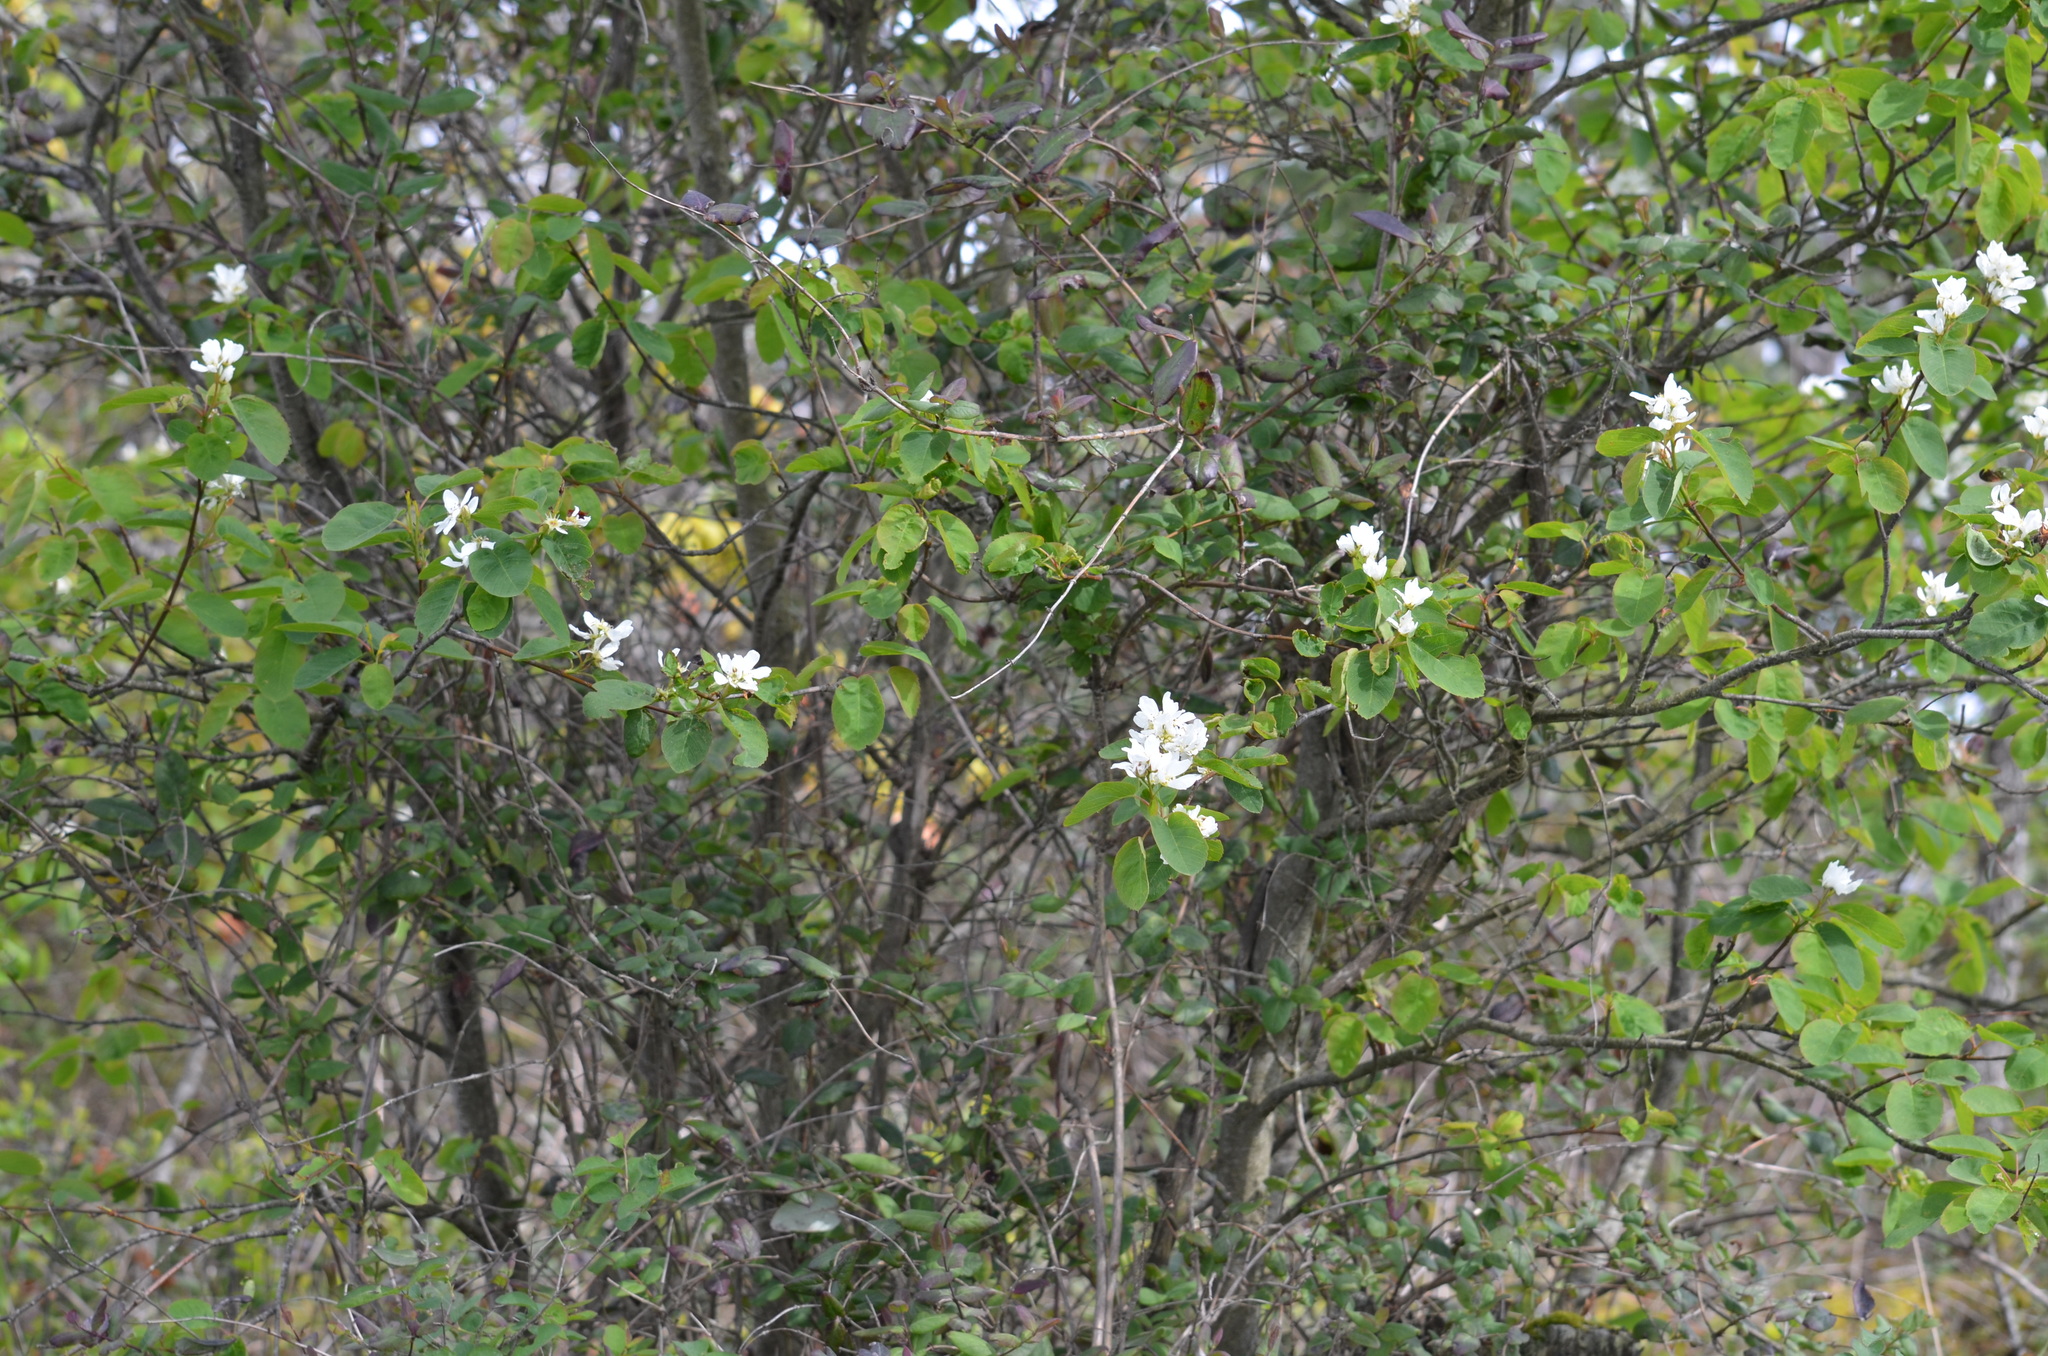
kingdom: Plantae
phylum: Tracheophyta
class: Magnoliopsida
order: Rosales
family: Rosaceae
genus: Amelanchier
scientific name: Amelanchier alnifolia
